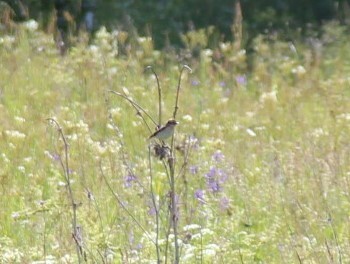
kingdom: Animalia
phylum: Chordata
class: Aves
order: Passeriformes
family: Muscicapidae
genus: Saxicola
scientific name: Saxicola rubetra
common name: Whinchat
